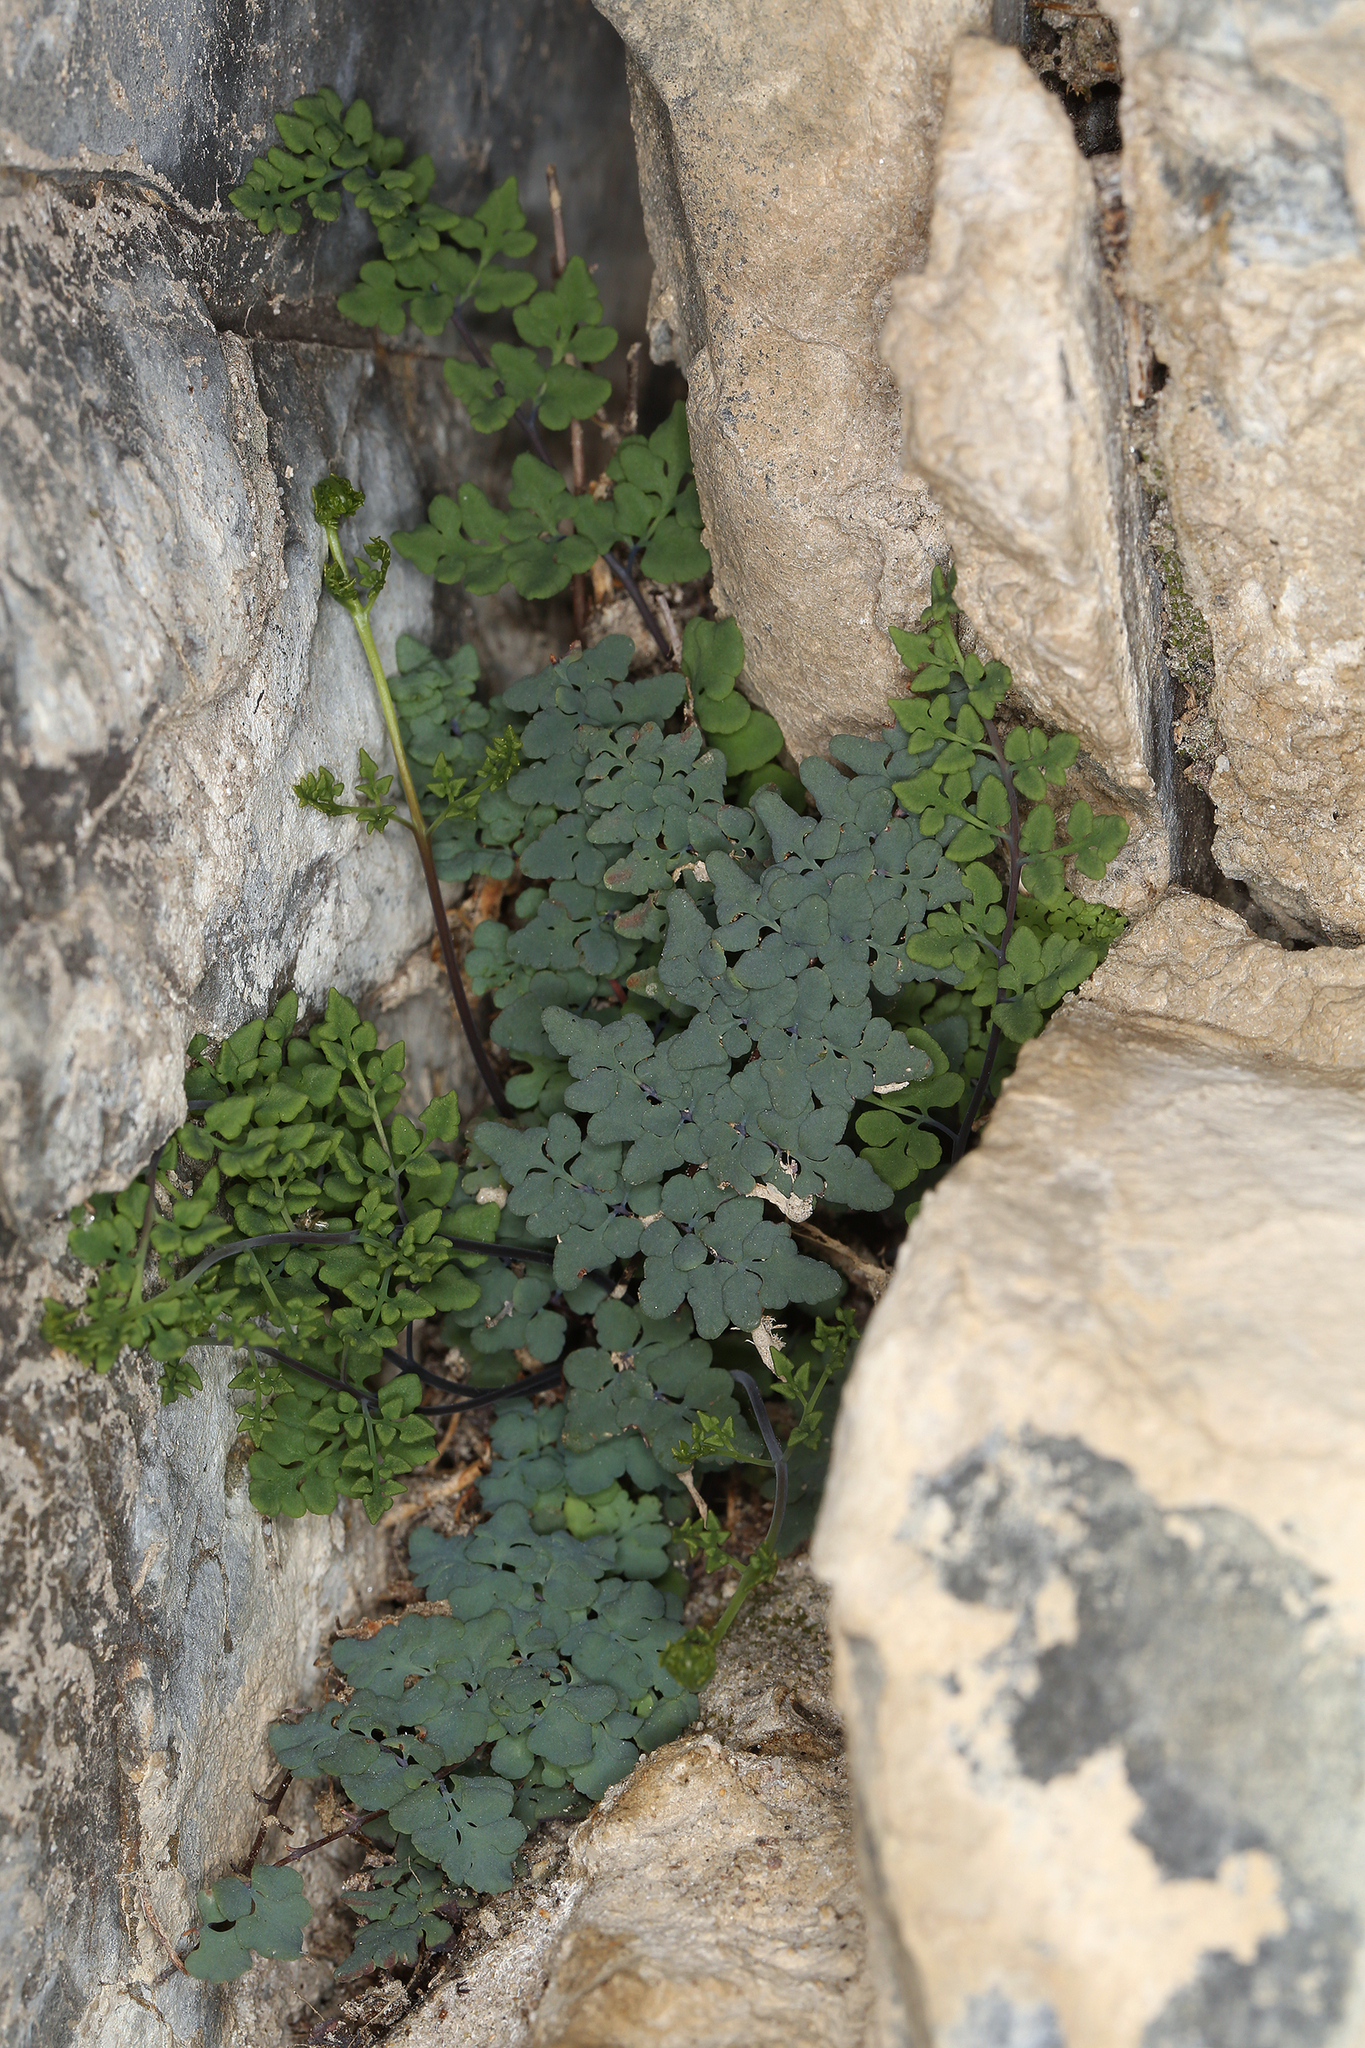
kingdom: Plantae
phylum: Tracheophyta
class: Polypodiopsida
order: Polypodiales
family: Pteridaceae
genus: Argyrochosma
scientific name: Argyrochosma jonesii
